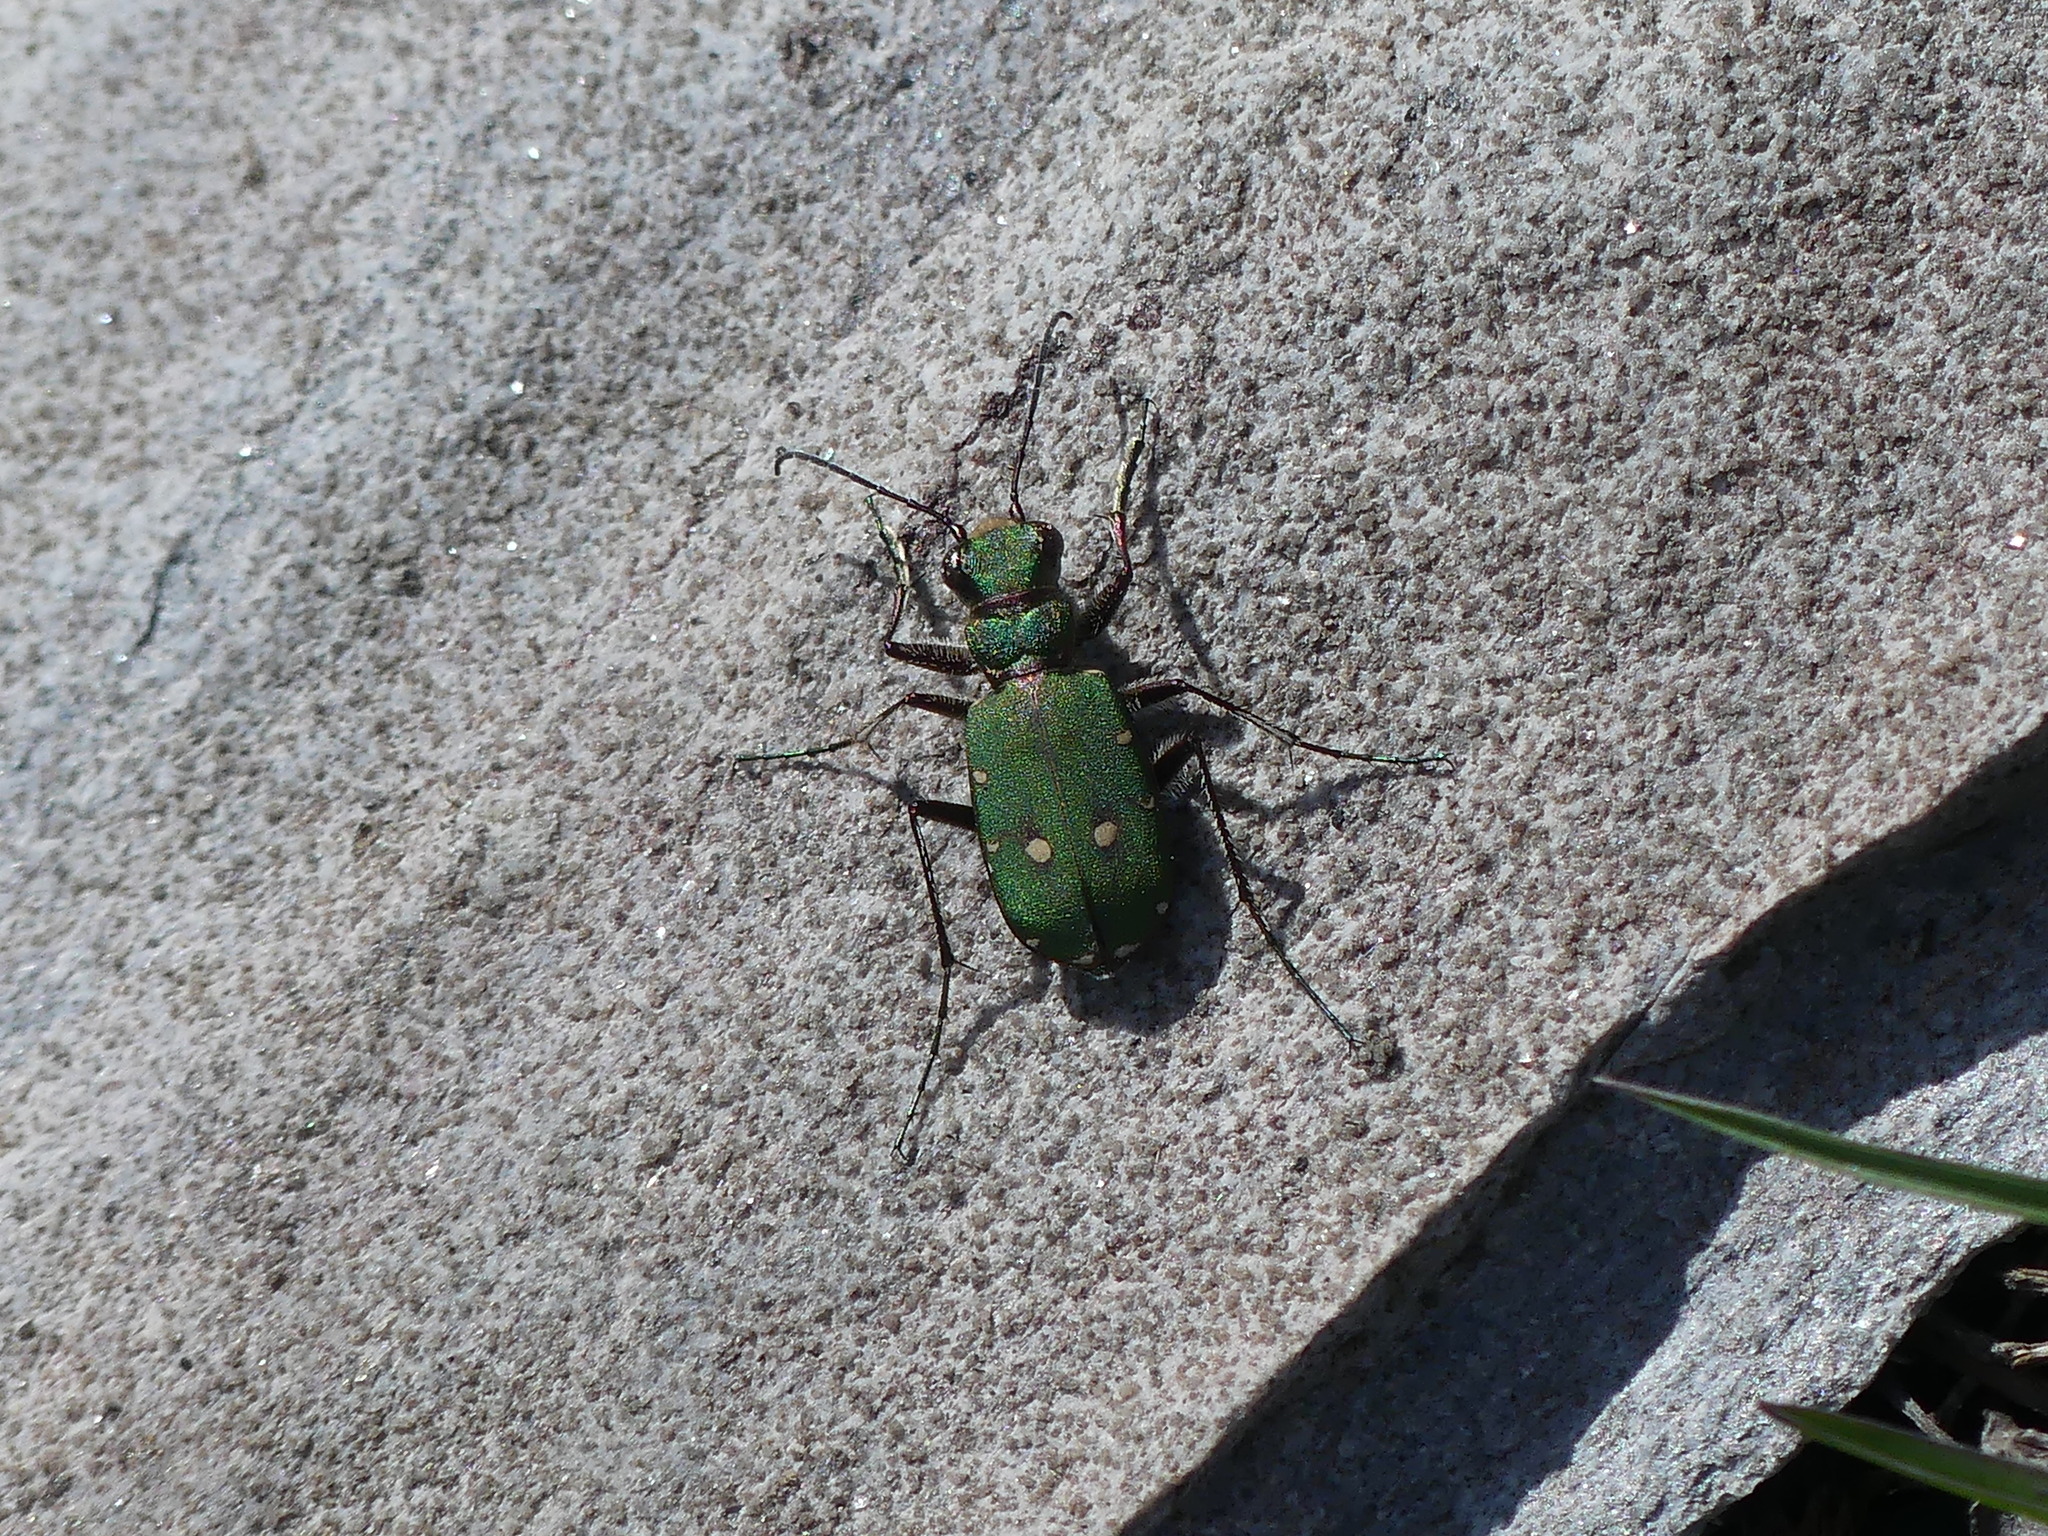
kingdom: Animalia
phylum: Arthropoda
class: Insecta
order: Coleoptera
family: Carabidae
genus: Cicindela
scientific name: Cicindela campestris
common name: Common tiger beetle
